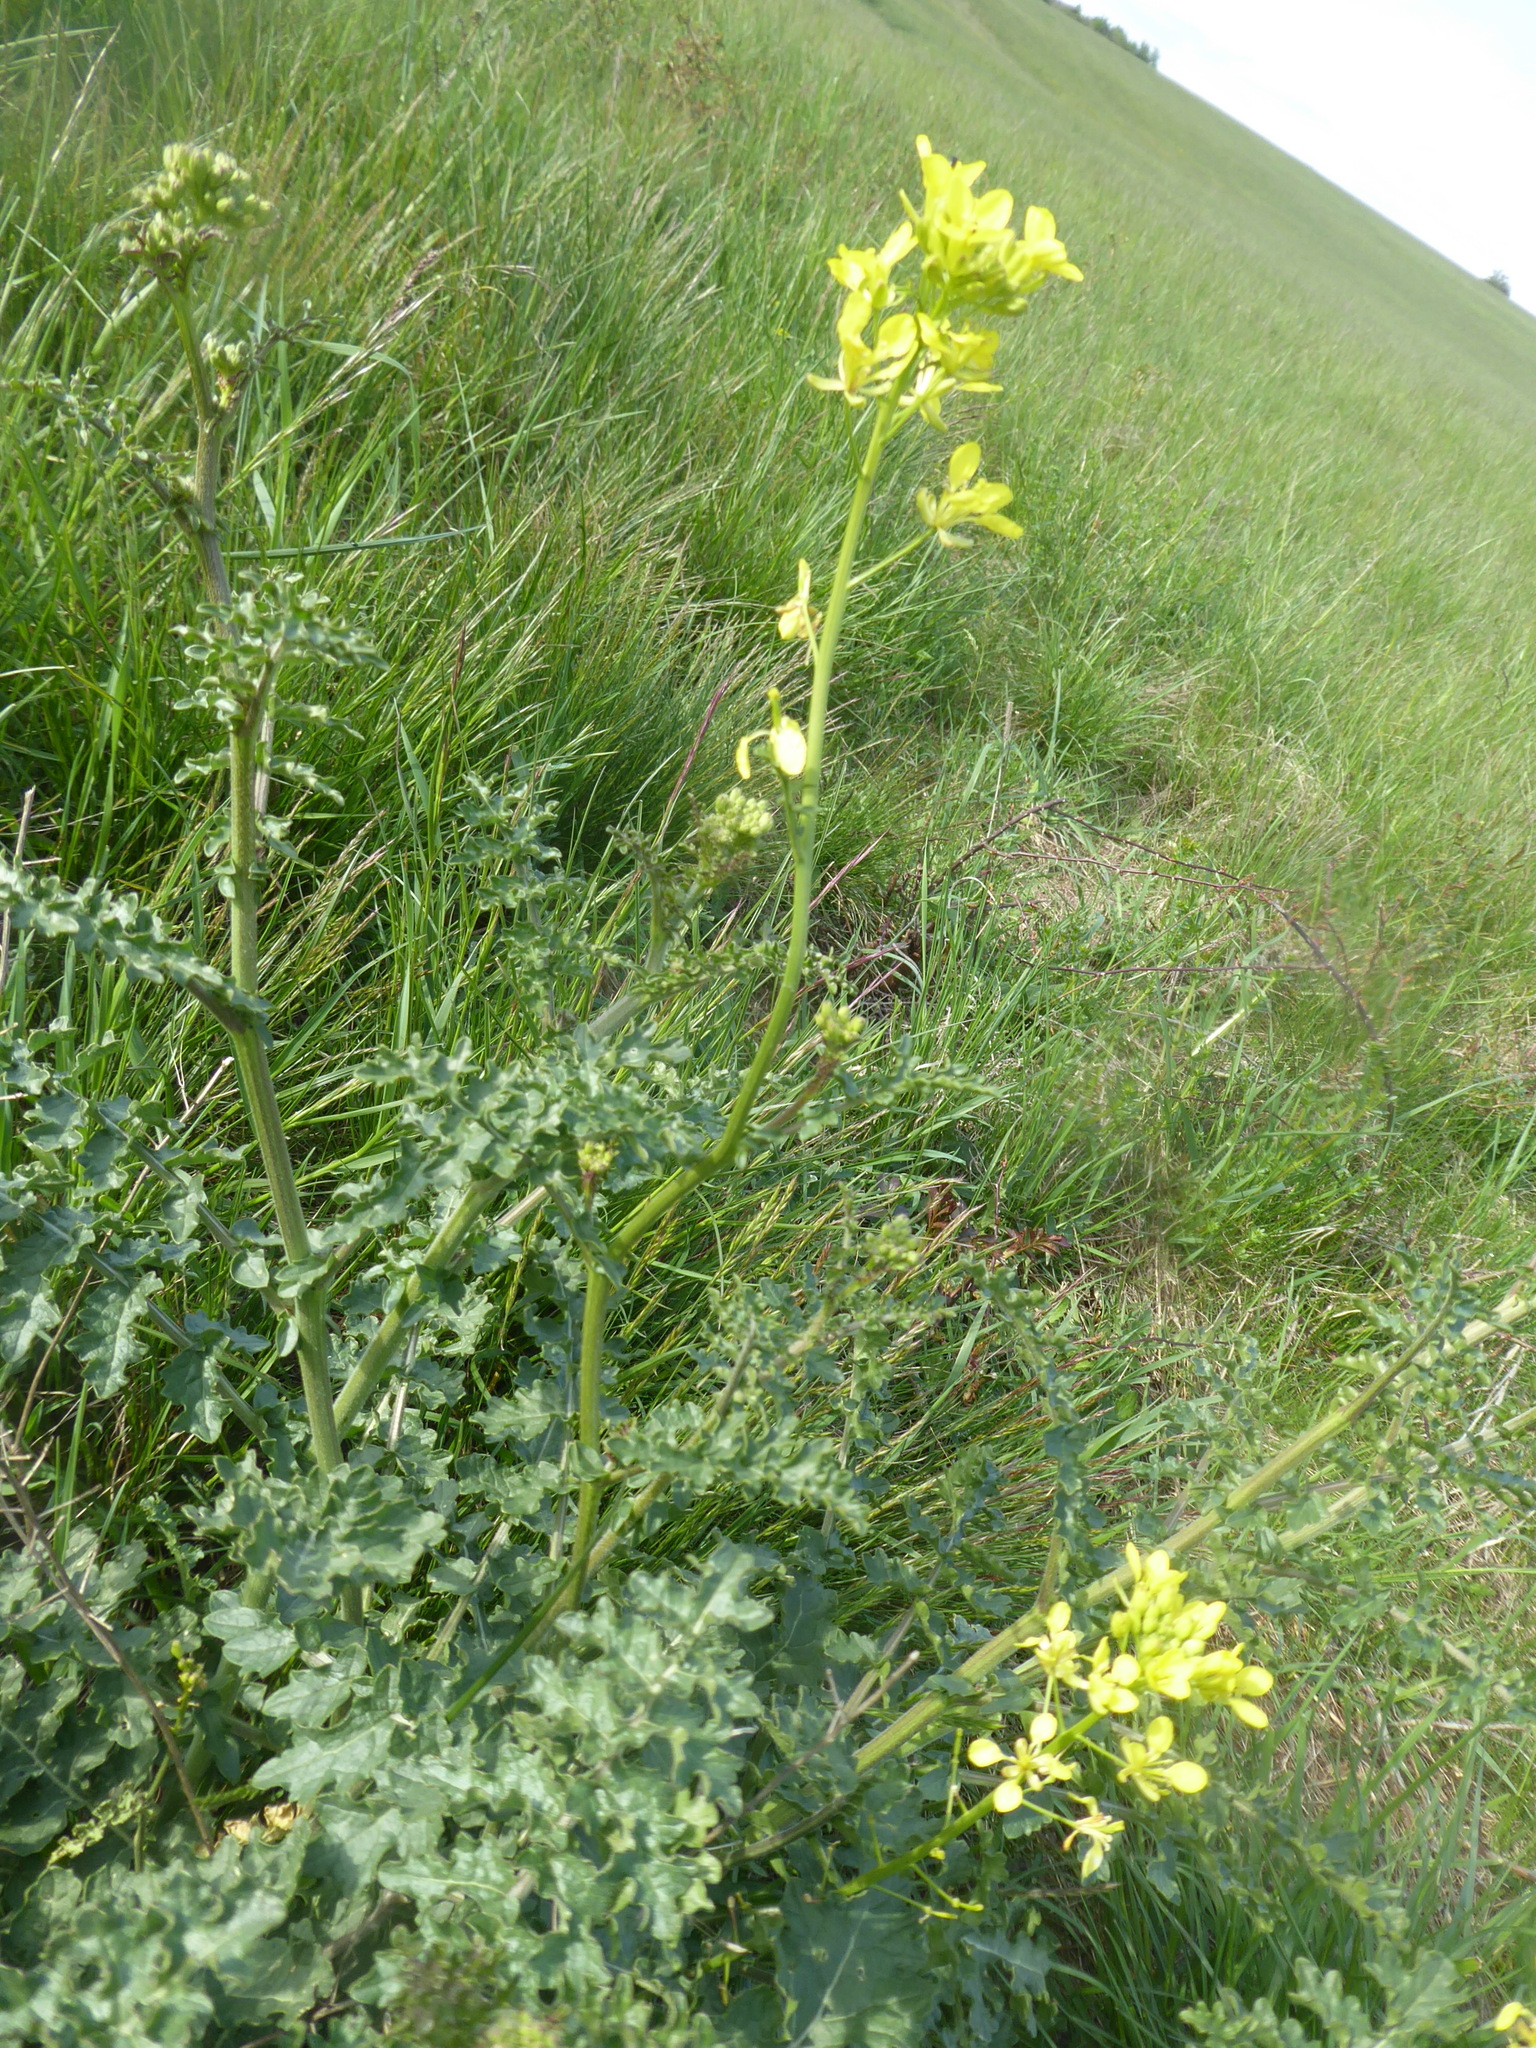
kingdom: Plantae
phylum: Tracheophyta
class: Magnoliopsida
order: Brassicales
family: Brassicaceae
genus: Erucastrum
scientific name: Erucastrum nasturtiifolium
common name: Watercress-leaf rocket
